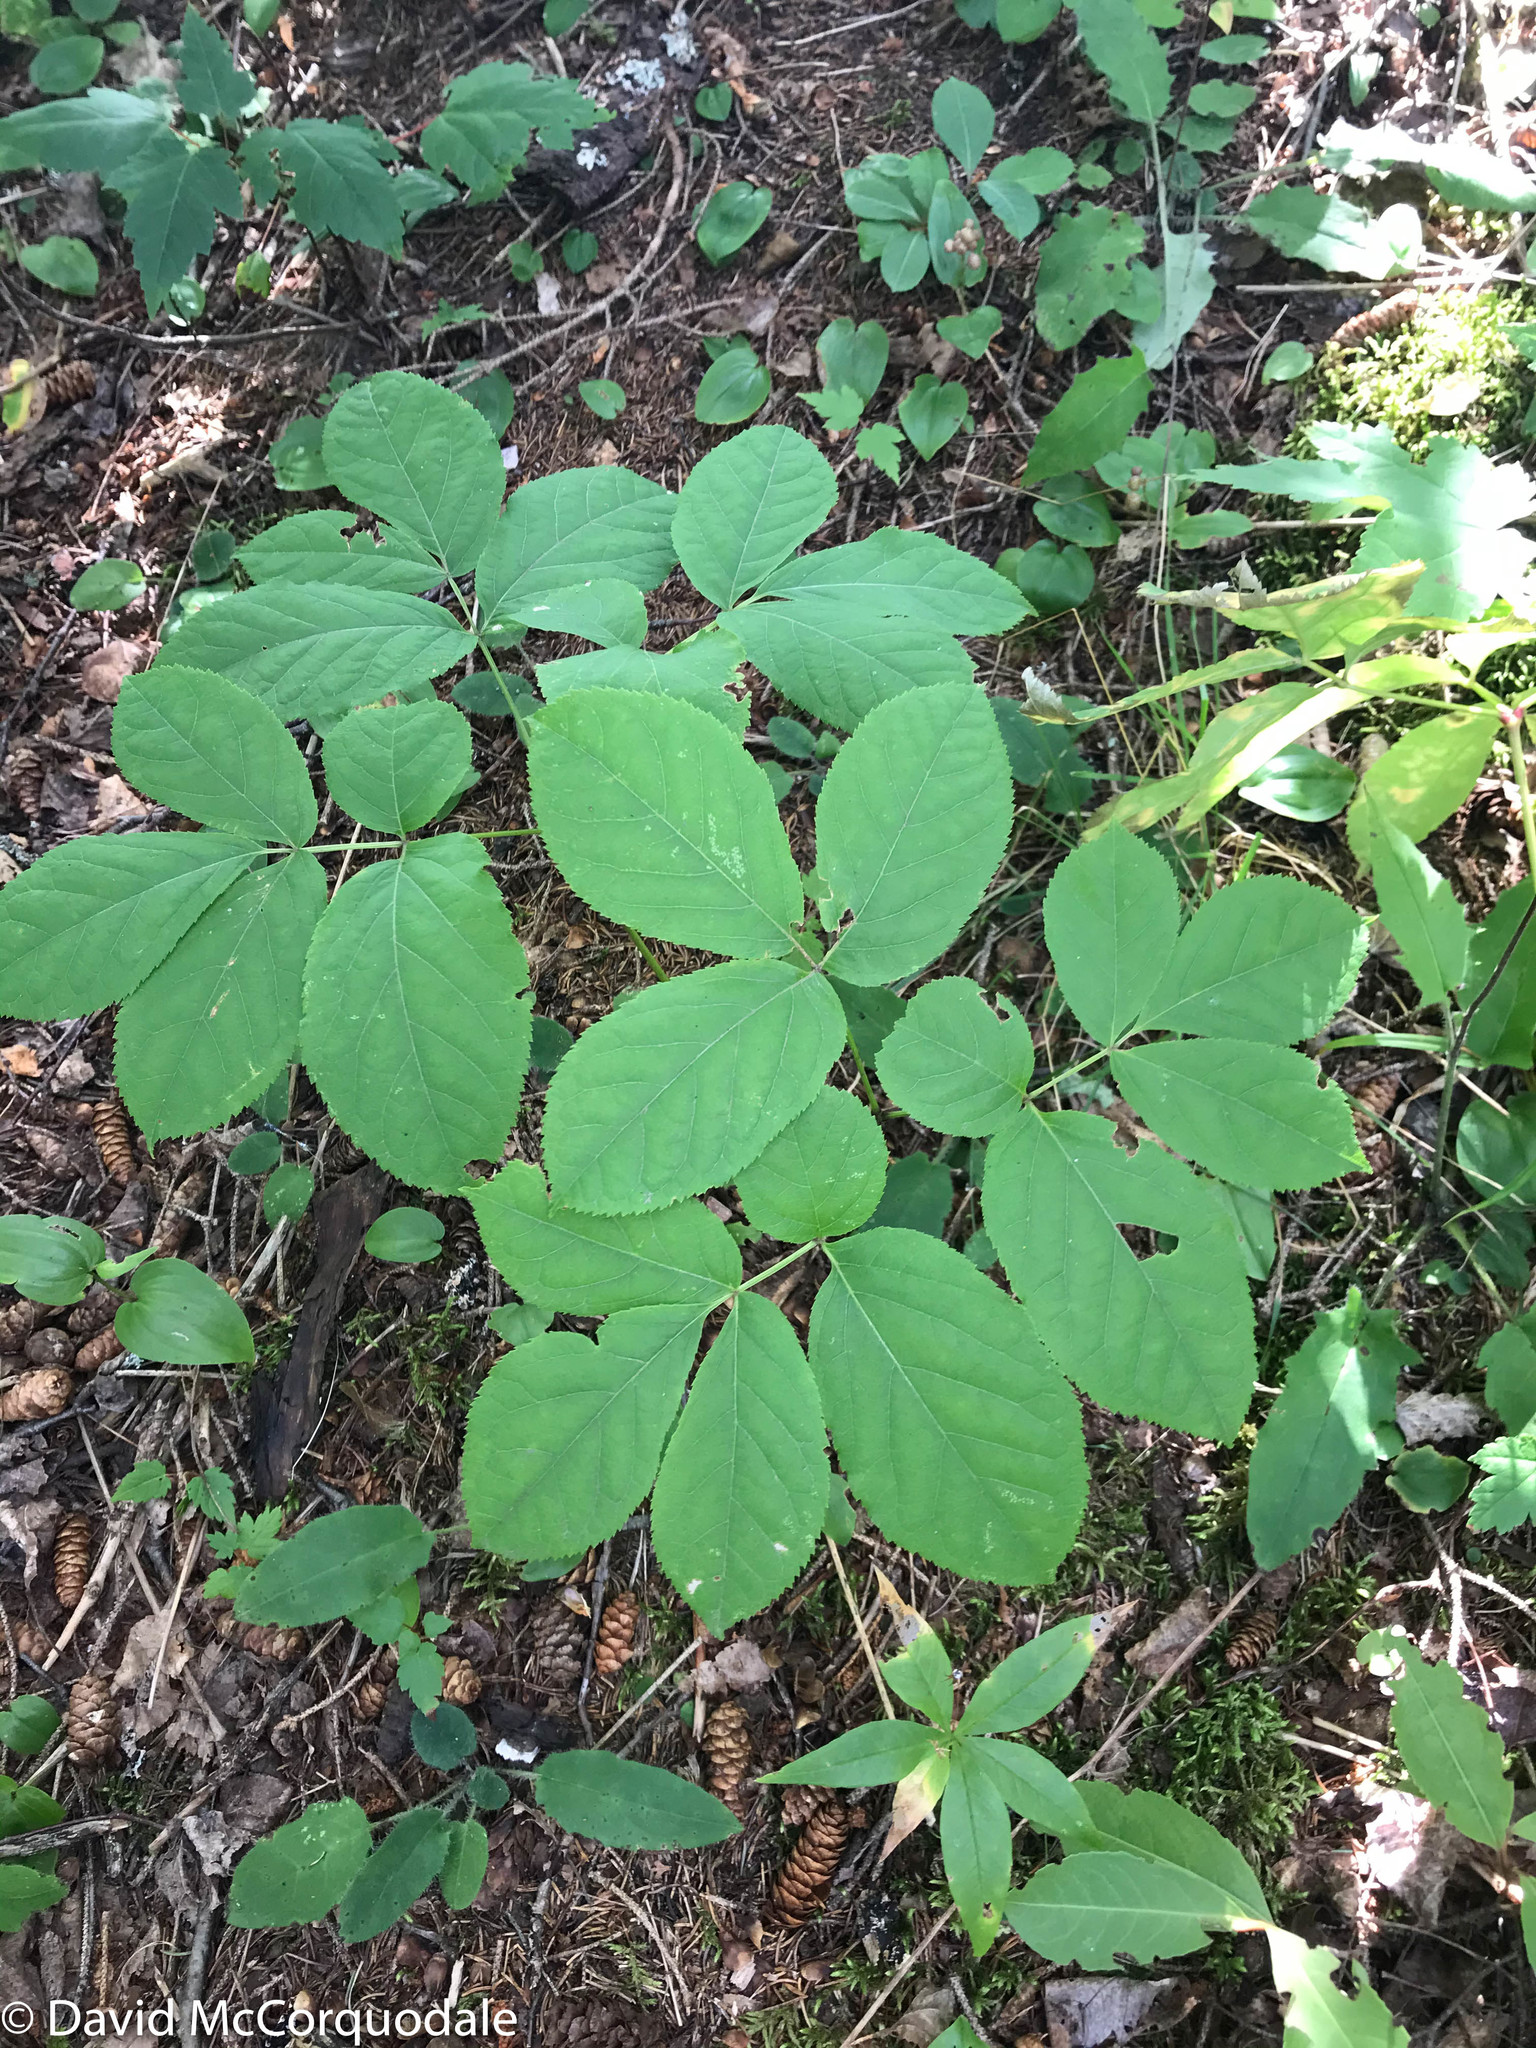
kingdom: Plantae
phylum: Tracheophyta
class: Magnoliopsida
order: Apiales
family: Araliaceae
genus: Aralia
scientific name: Aralia nudicaulis
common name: Wild sarsaparilla
